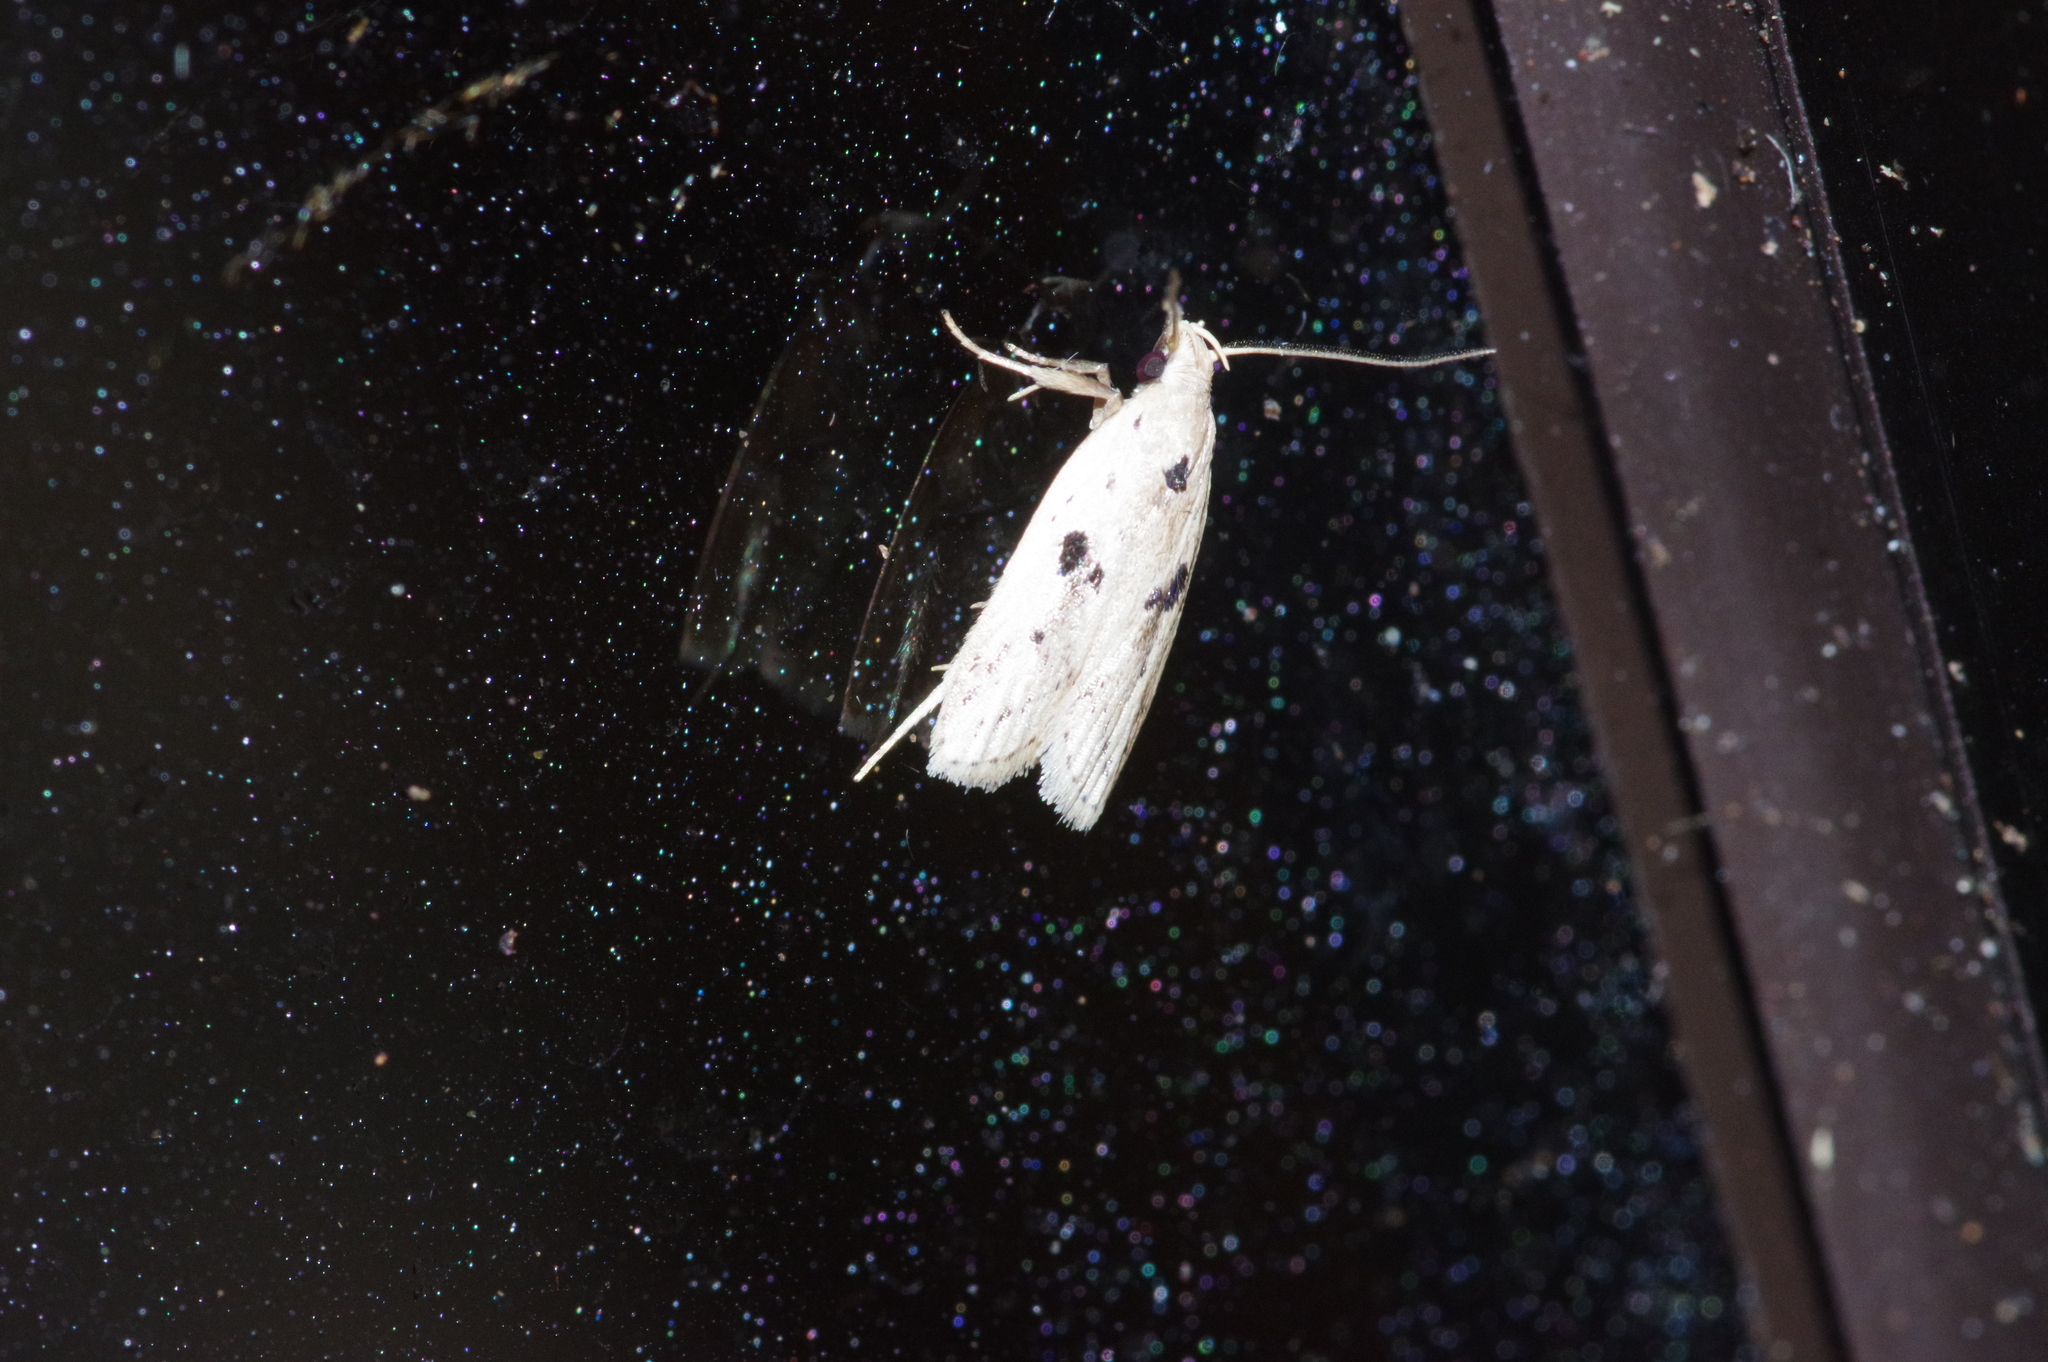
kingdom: Animalia
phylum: Arthropoda
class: Insecta
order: Lepidoptera
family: Peleopodidae
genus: Scythropiodes
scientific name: Scythropiodes issikii
